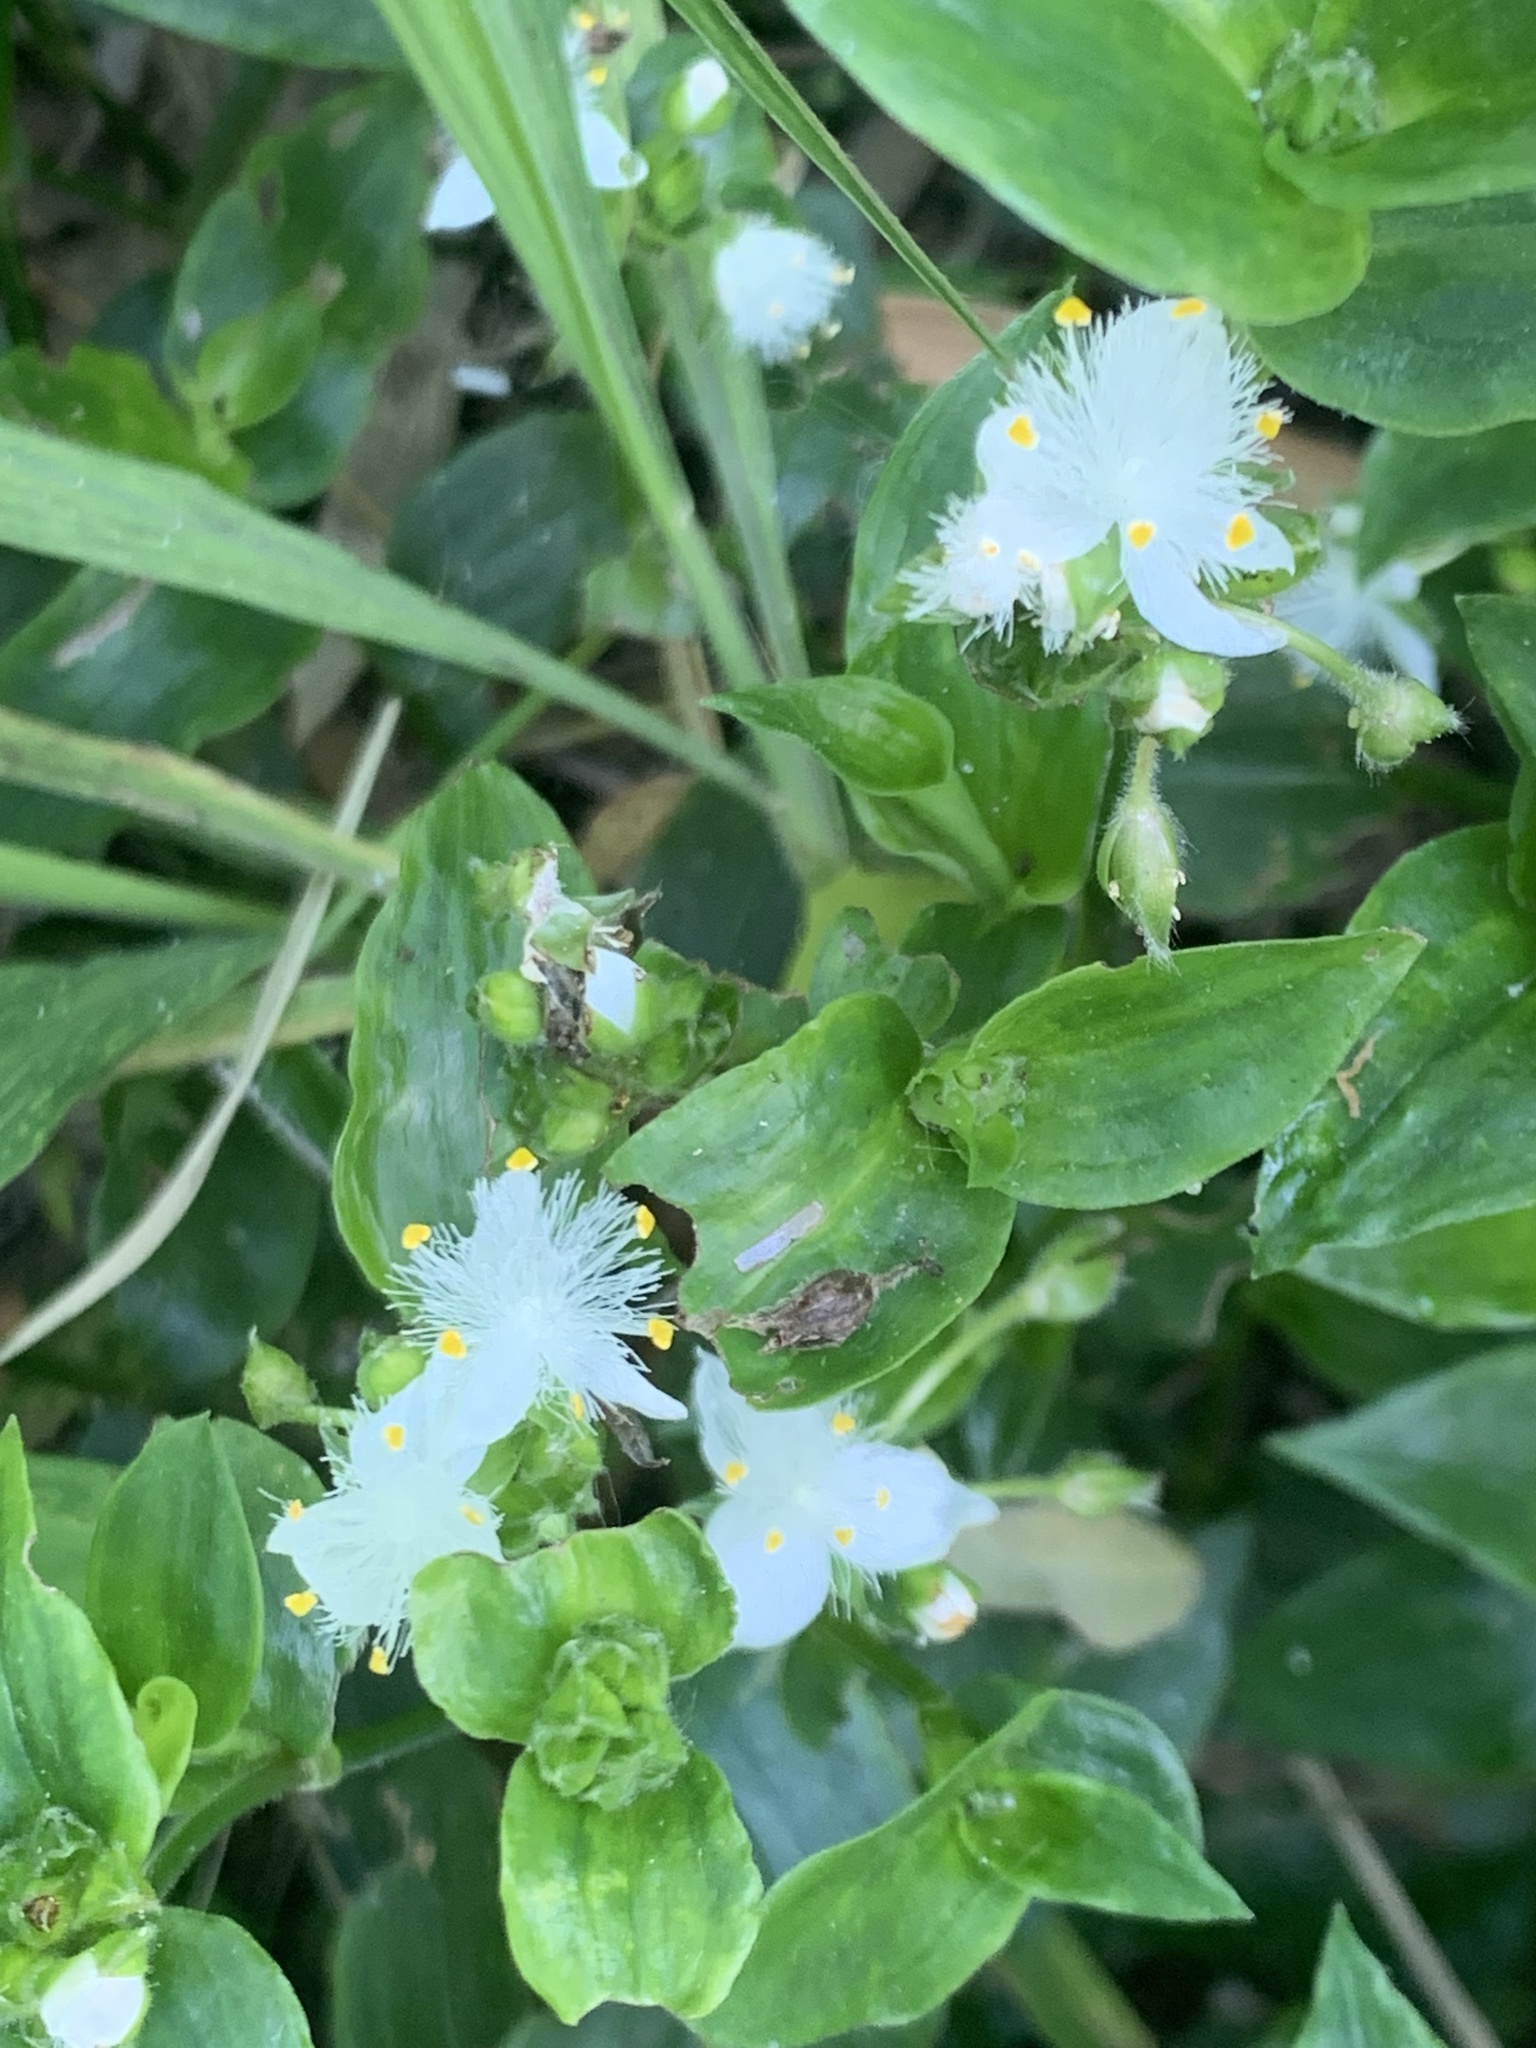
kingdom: Plantae
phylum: Tracheophyta
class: Liliopsida
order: Commelinales
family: Commelinaceae
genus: Tradescantia
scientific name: Tradescantia fluminensis
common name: Wandering-jew
